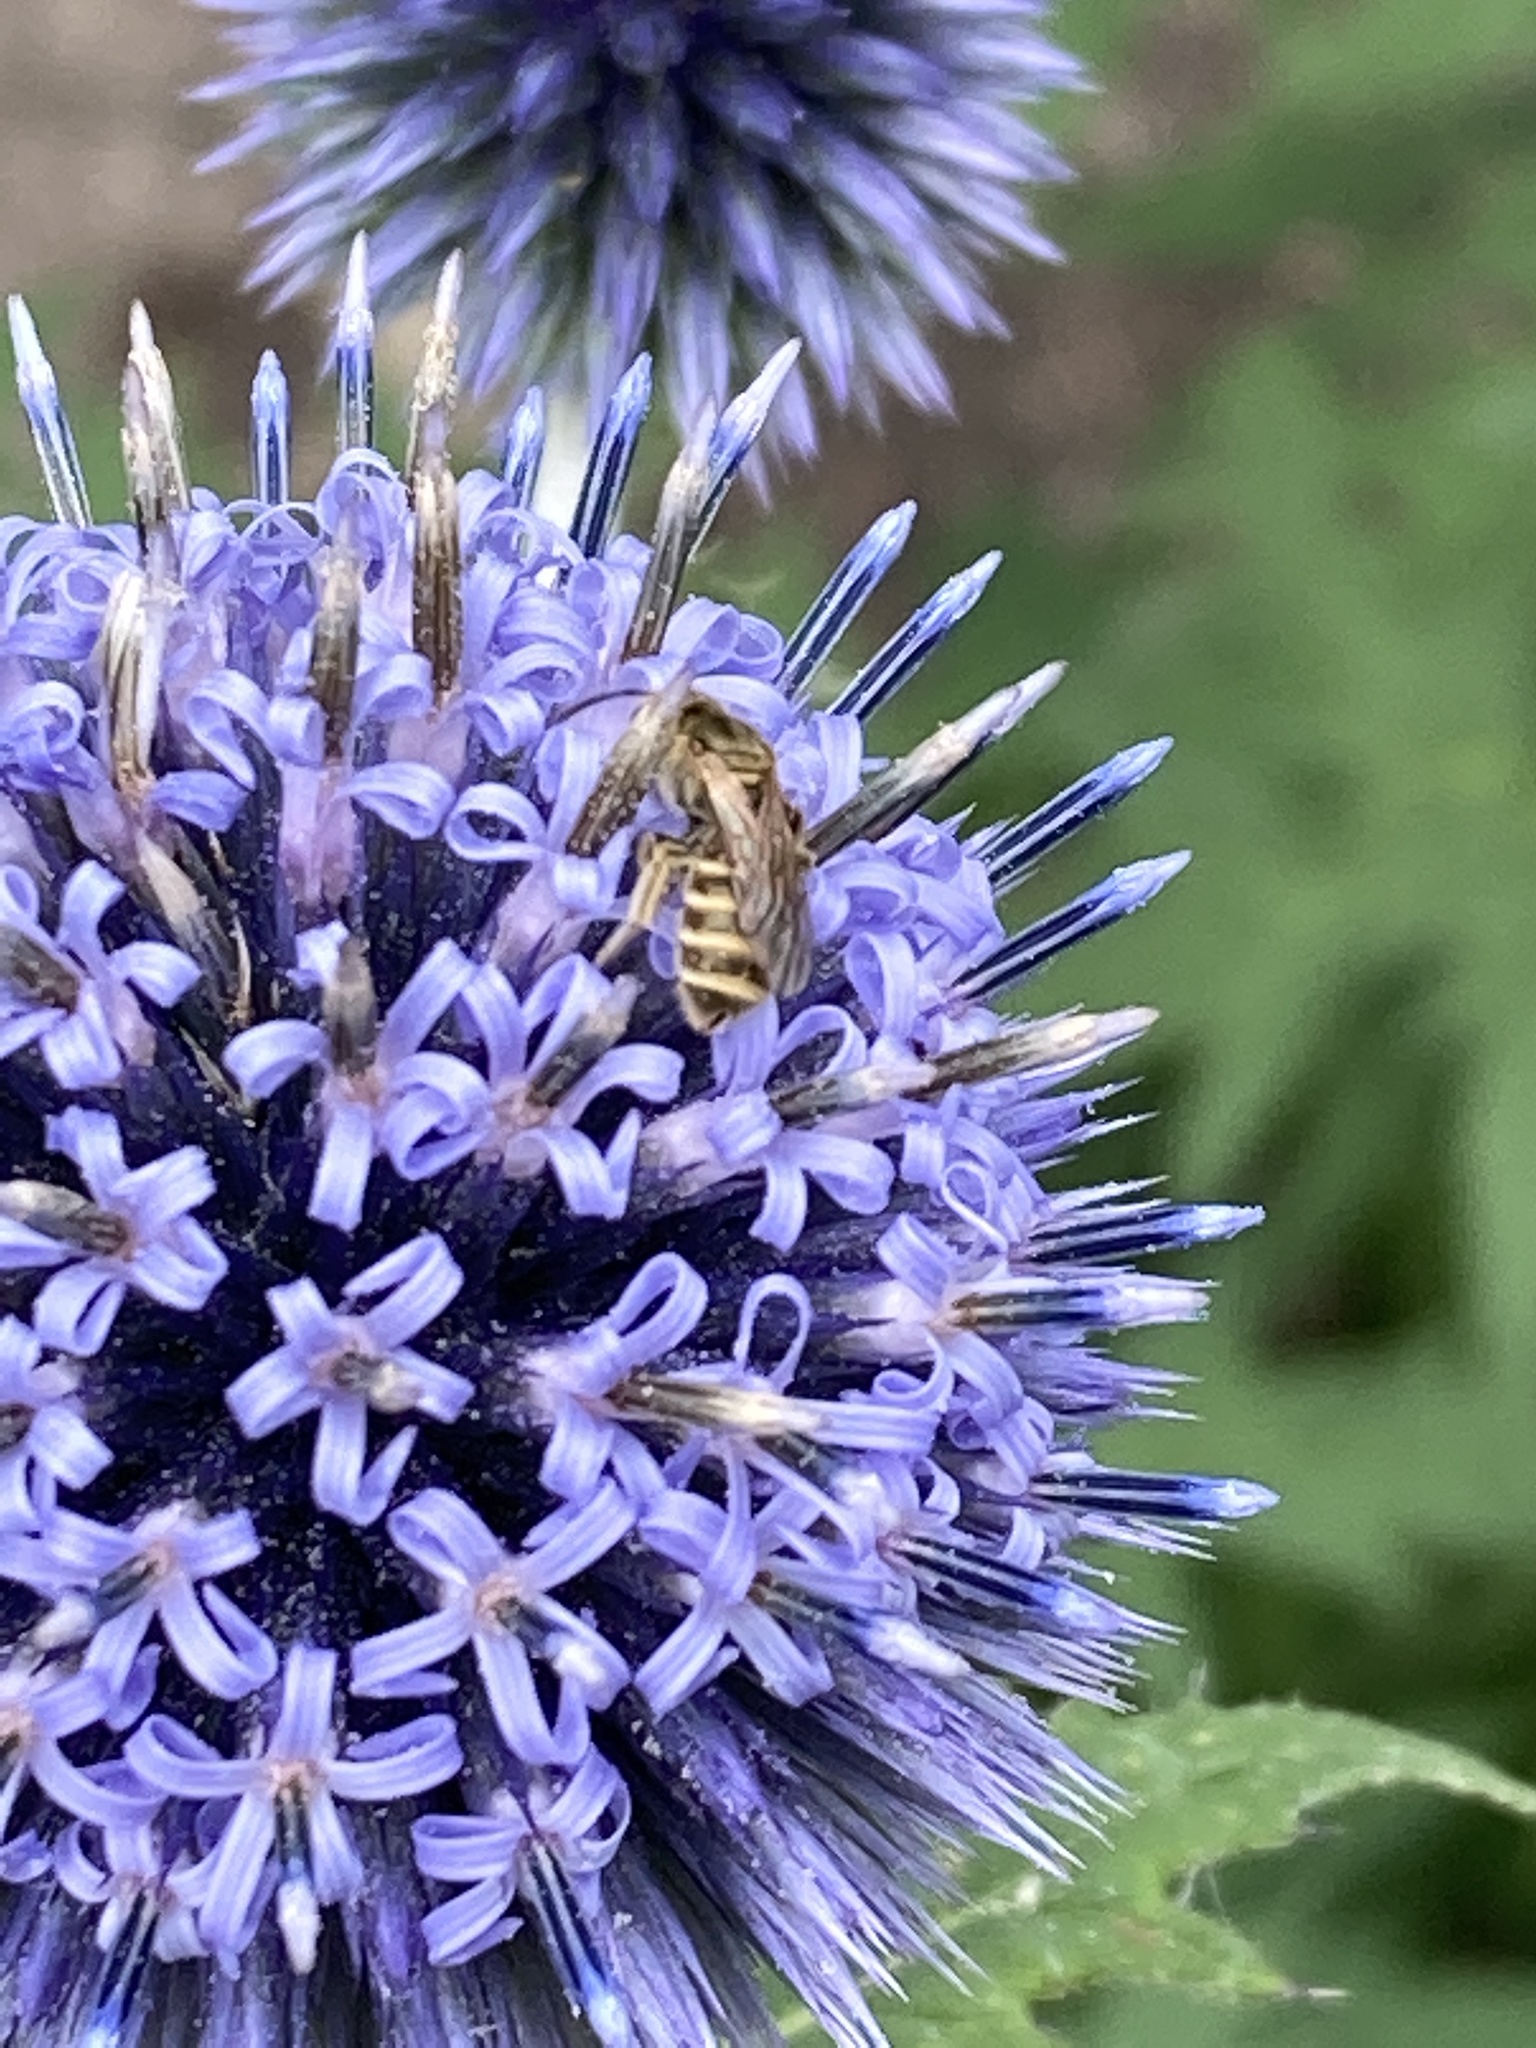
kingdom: Animalia
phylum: Arthropoda
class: Insecta
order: Hymenoptera
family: Halictidae
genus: Halictus
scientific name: Halictus confusus
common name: Southern bronze furrow bee
